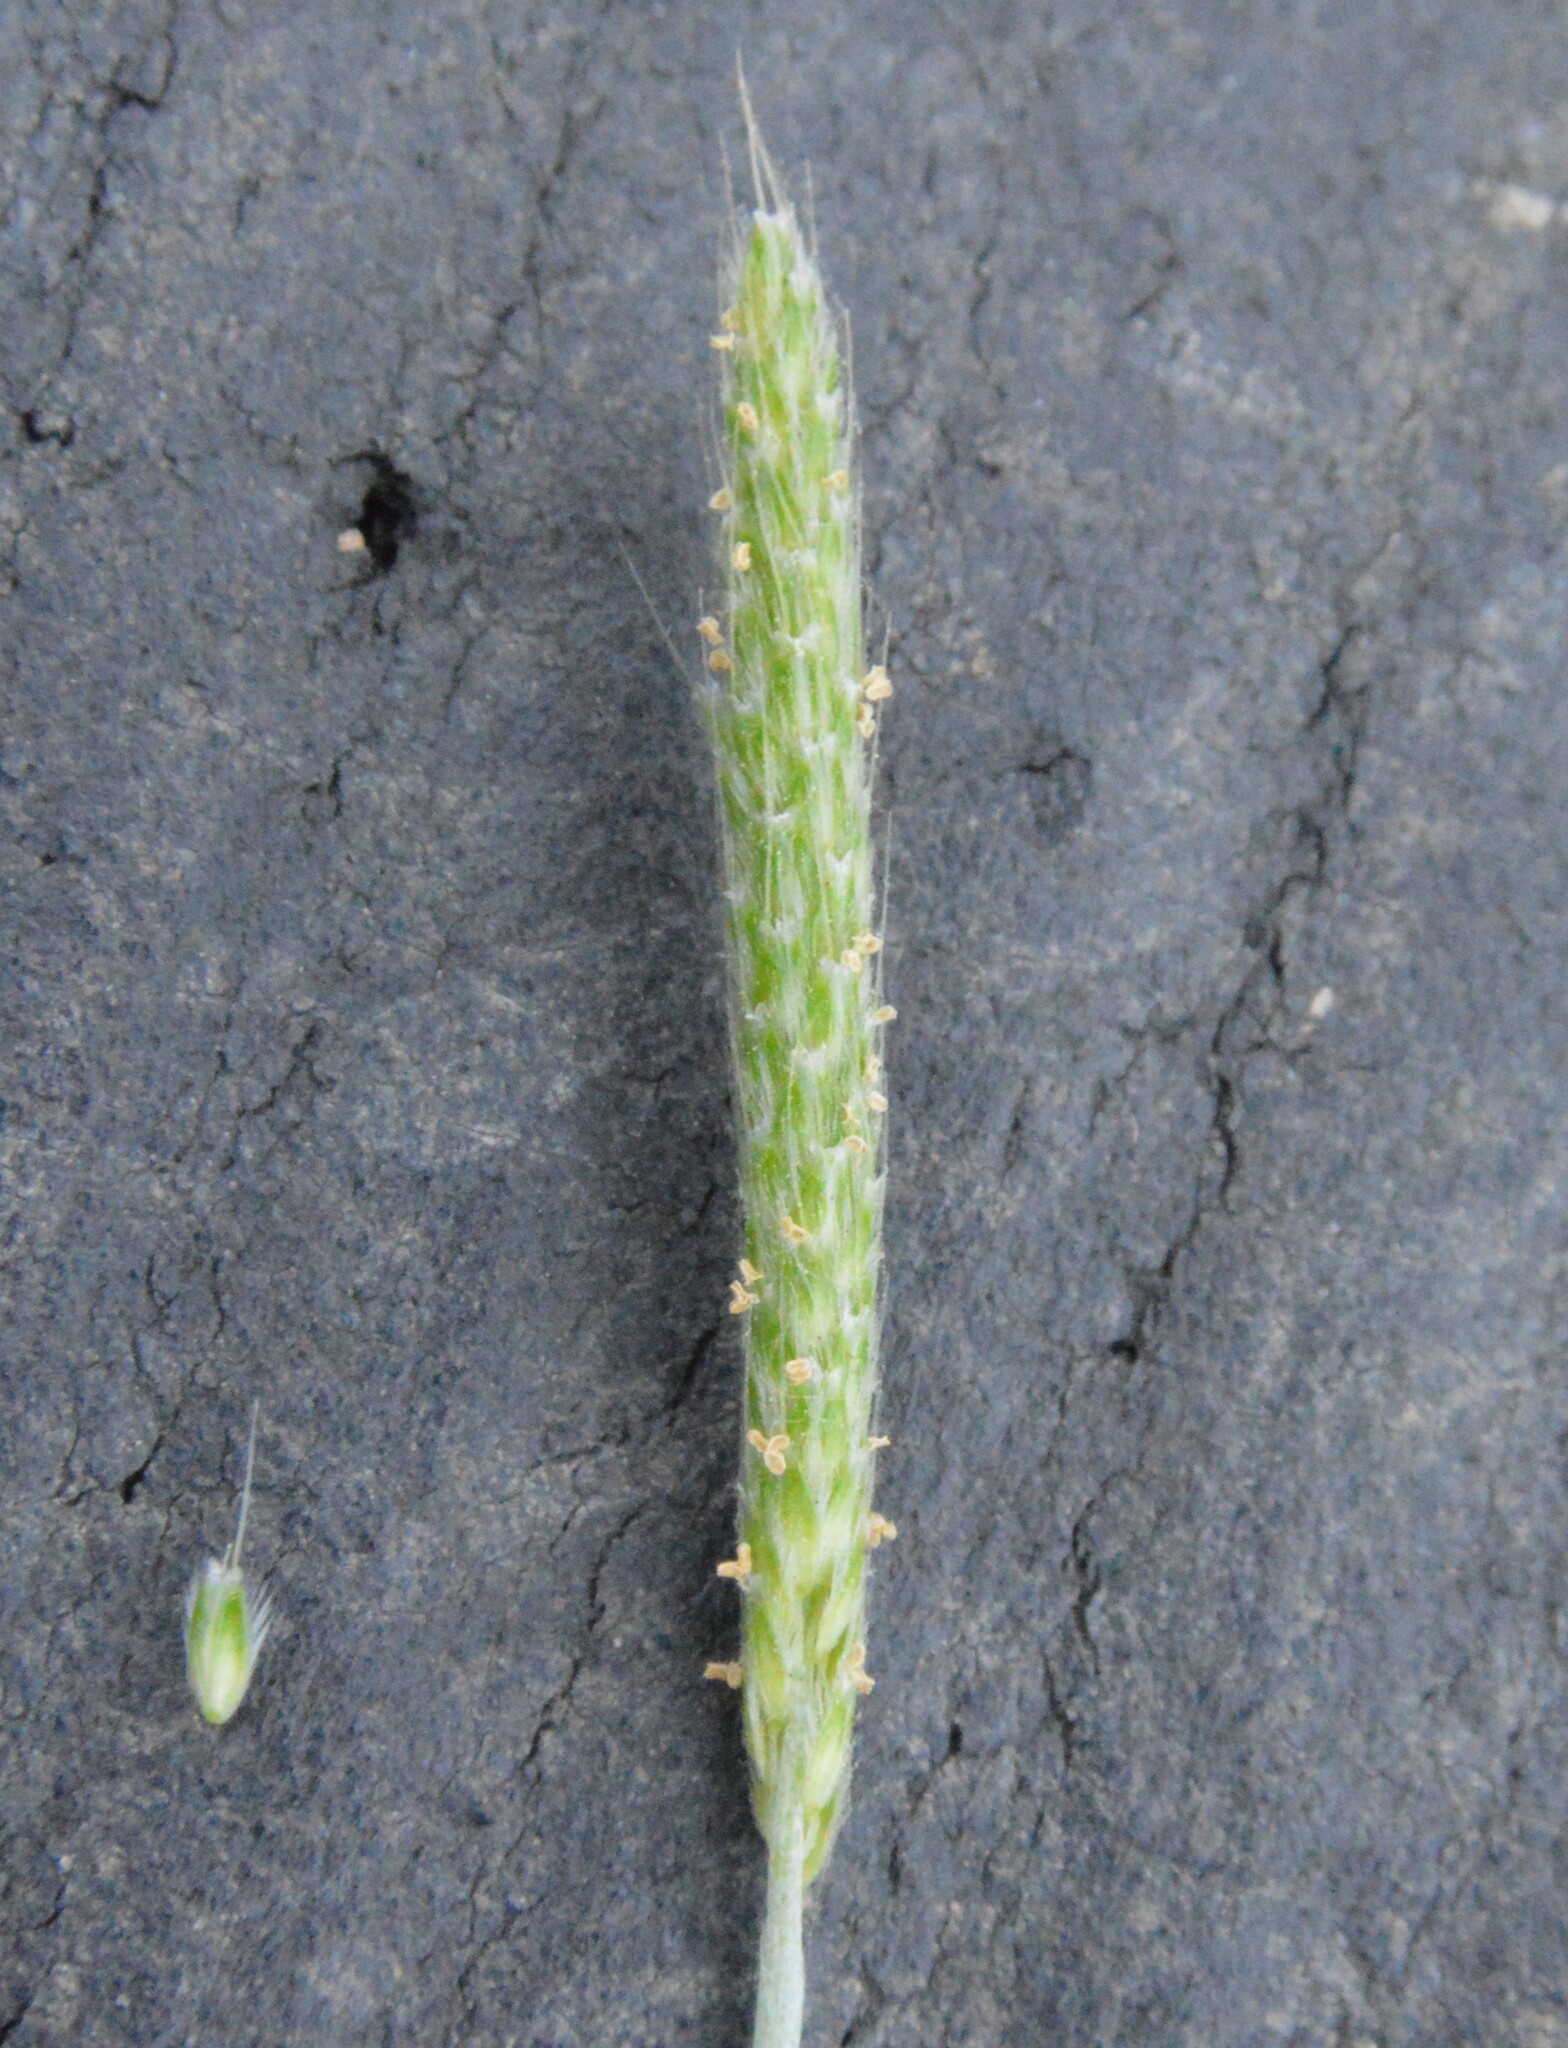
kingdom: Plantae
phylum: Tracheophyta
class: Liliopsida
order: Poales
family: Poaceae
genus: Alopecurus
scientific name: Alopecurus carolinianus
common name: Tufted foxtail
